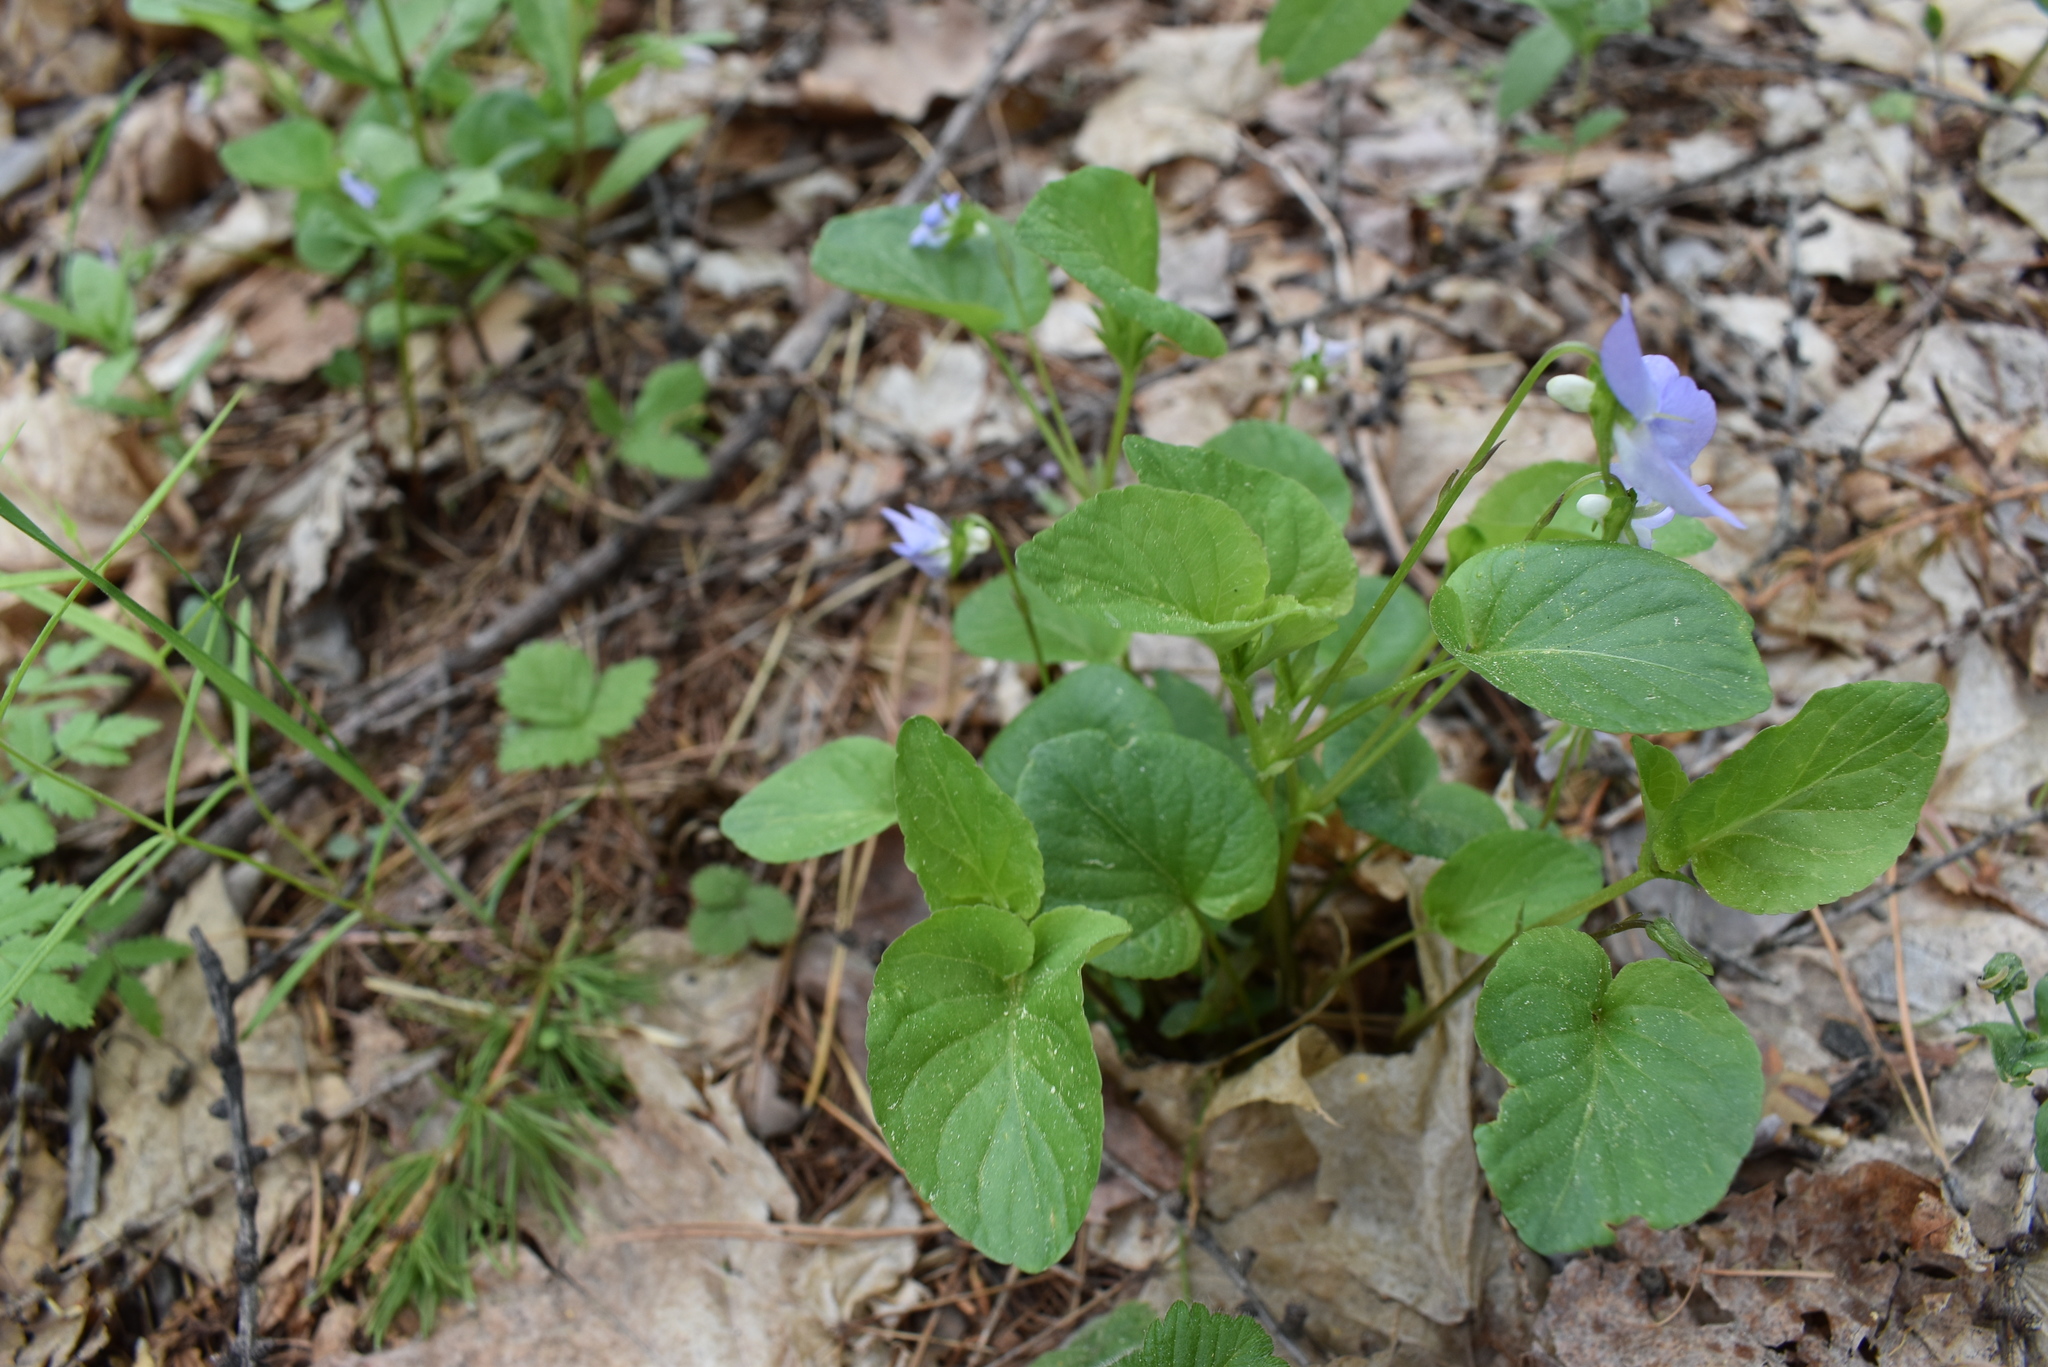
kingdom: Plantae
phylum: Tracheophyta
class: Magnoliopsida
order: Malpighiales
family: Violaceae
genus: Viola
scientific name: Viola sacchalinensis
